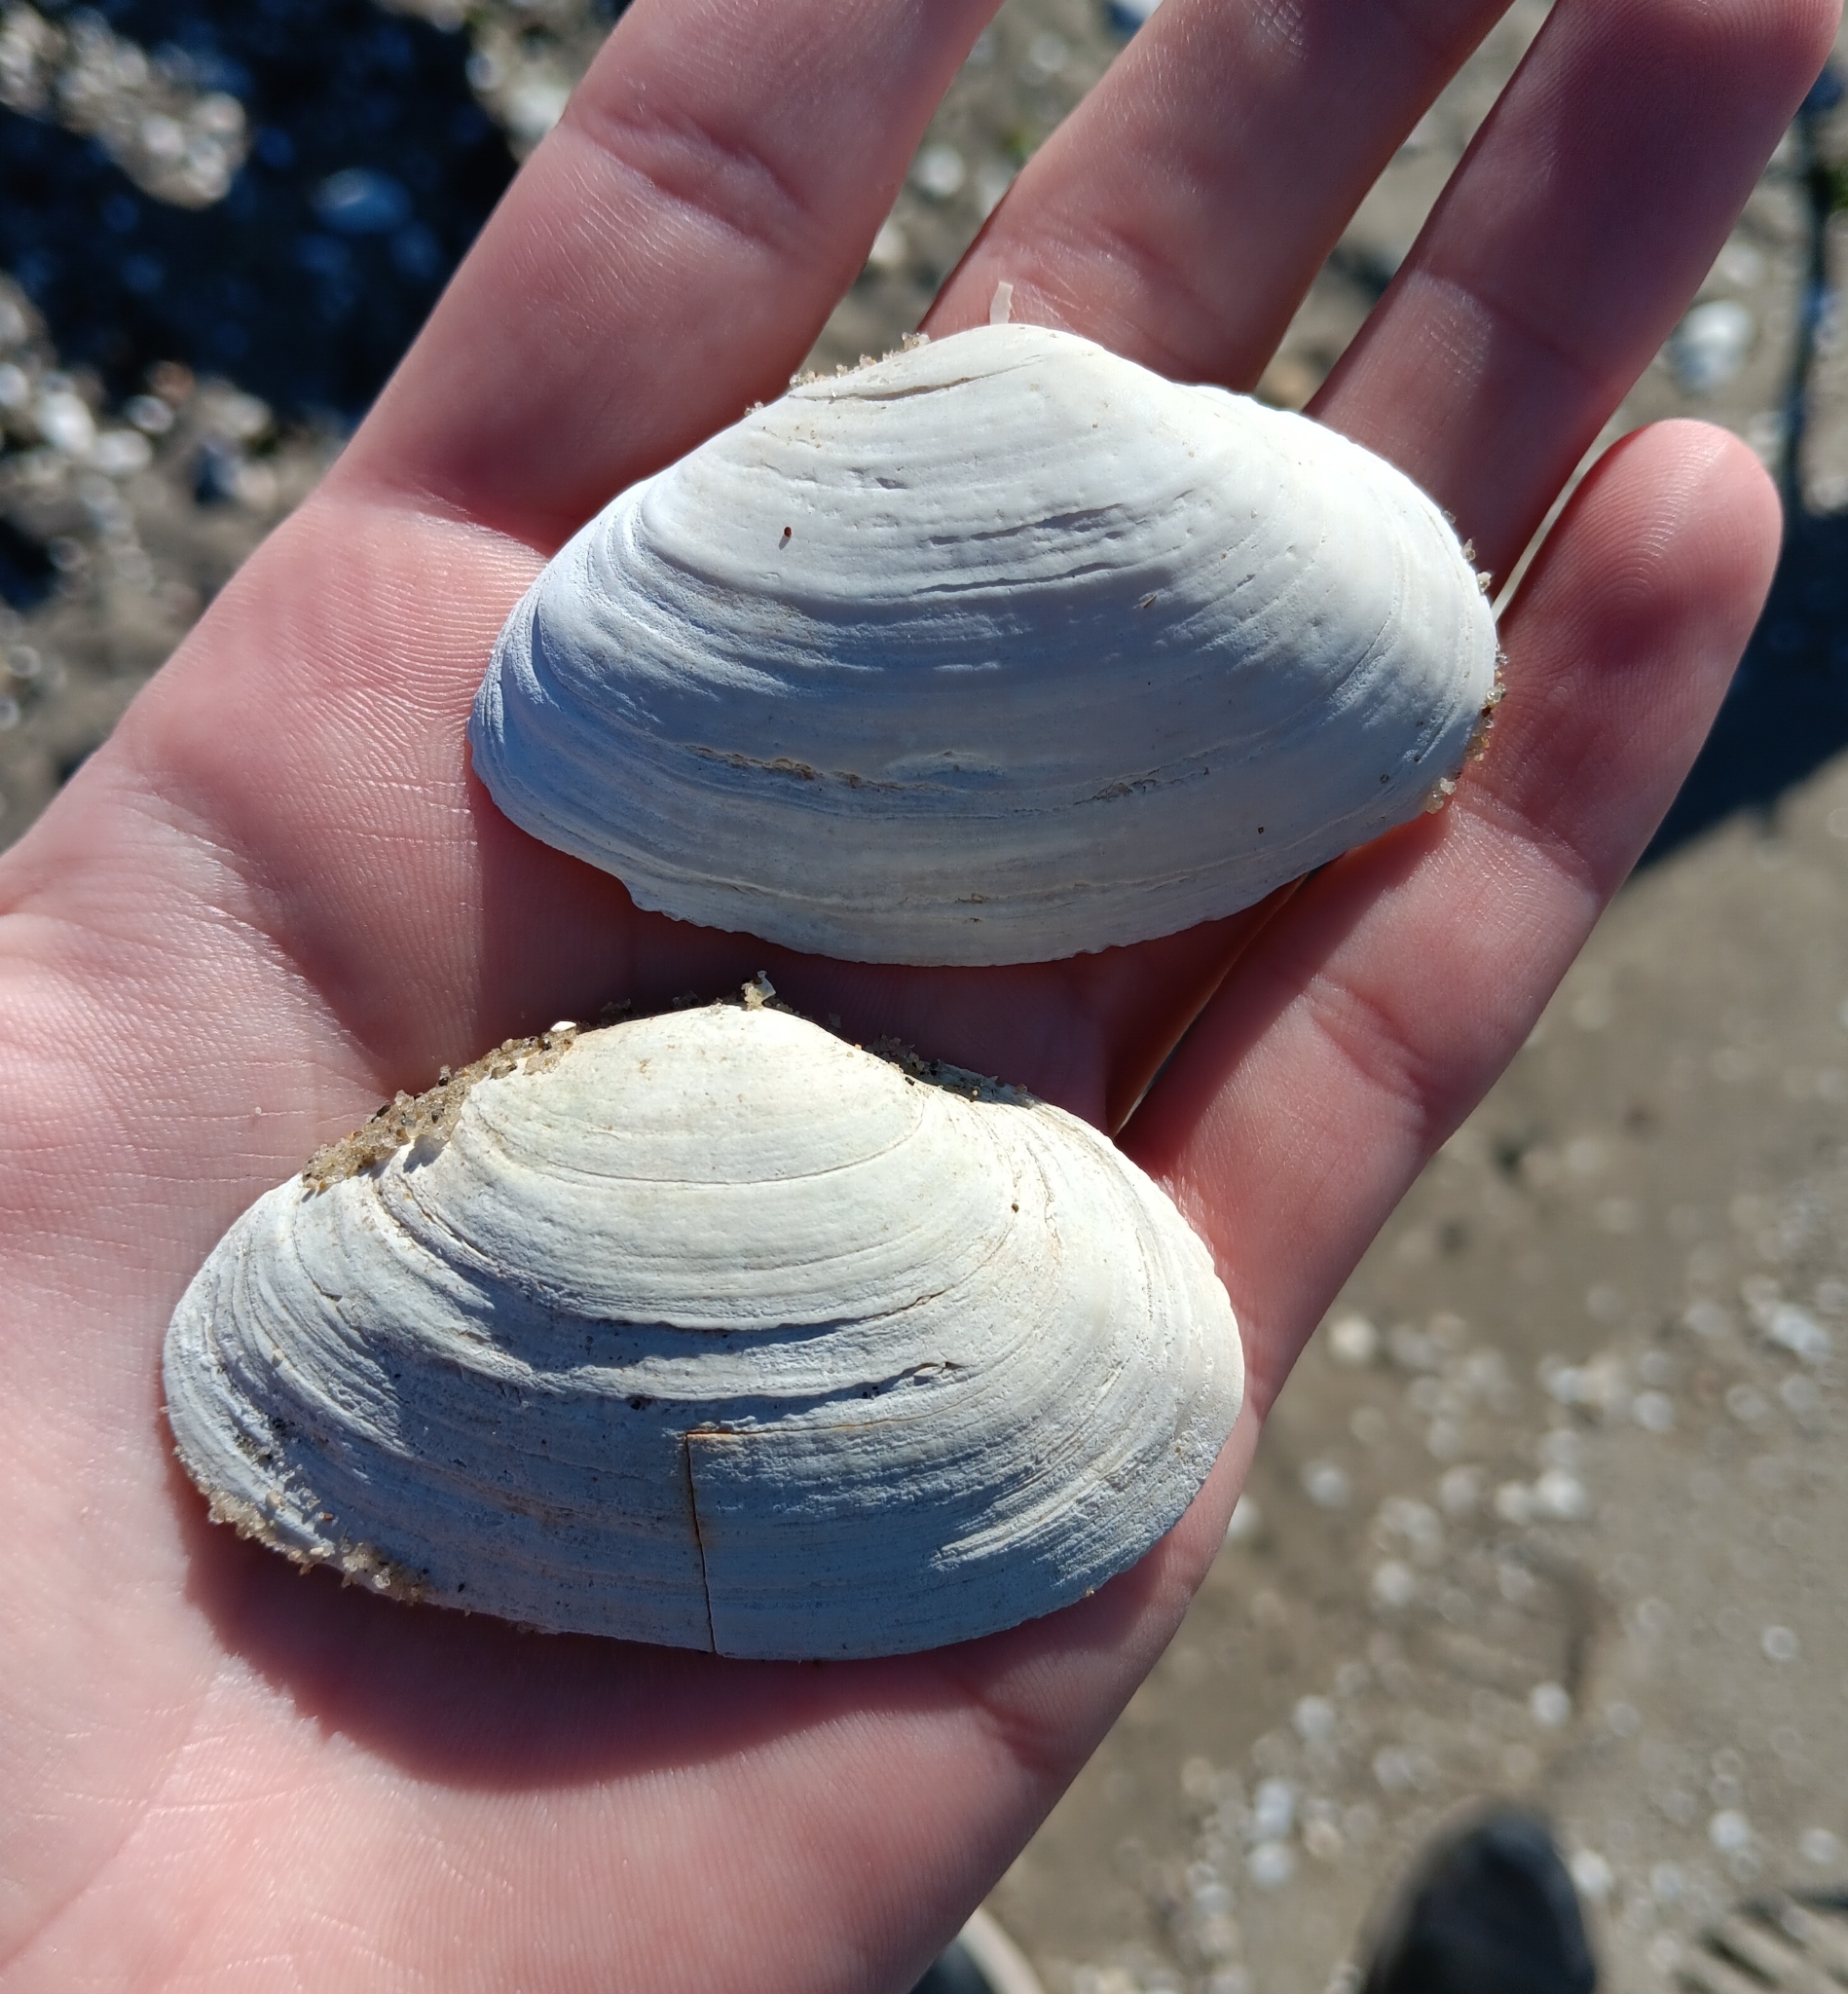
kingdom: Animalia
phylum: Mollusca
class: Bivalvia
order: Myida
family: Myidae
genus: Mya
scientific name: Mya arenaria
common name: Soft-shelled clam
